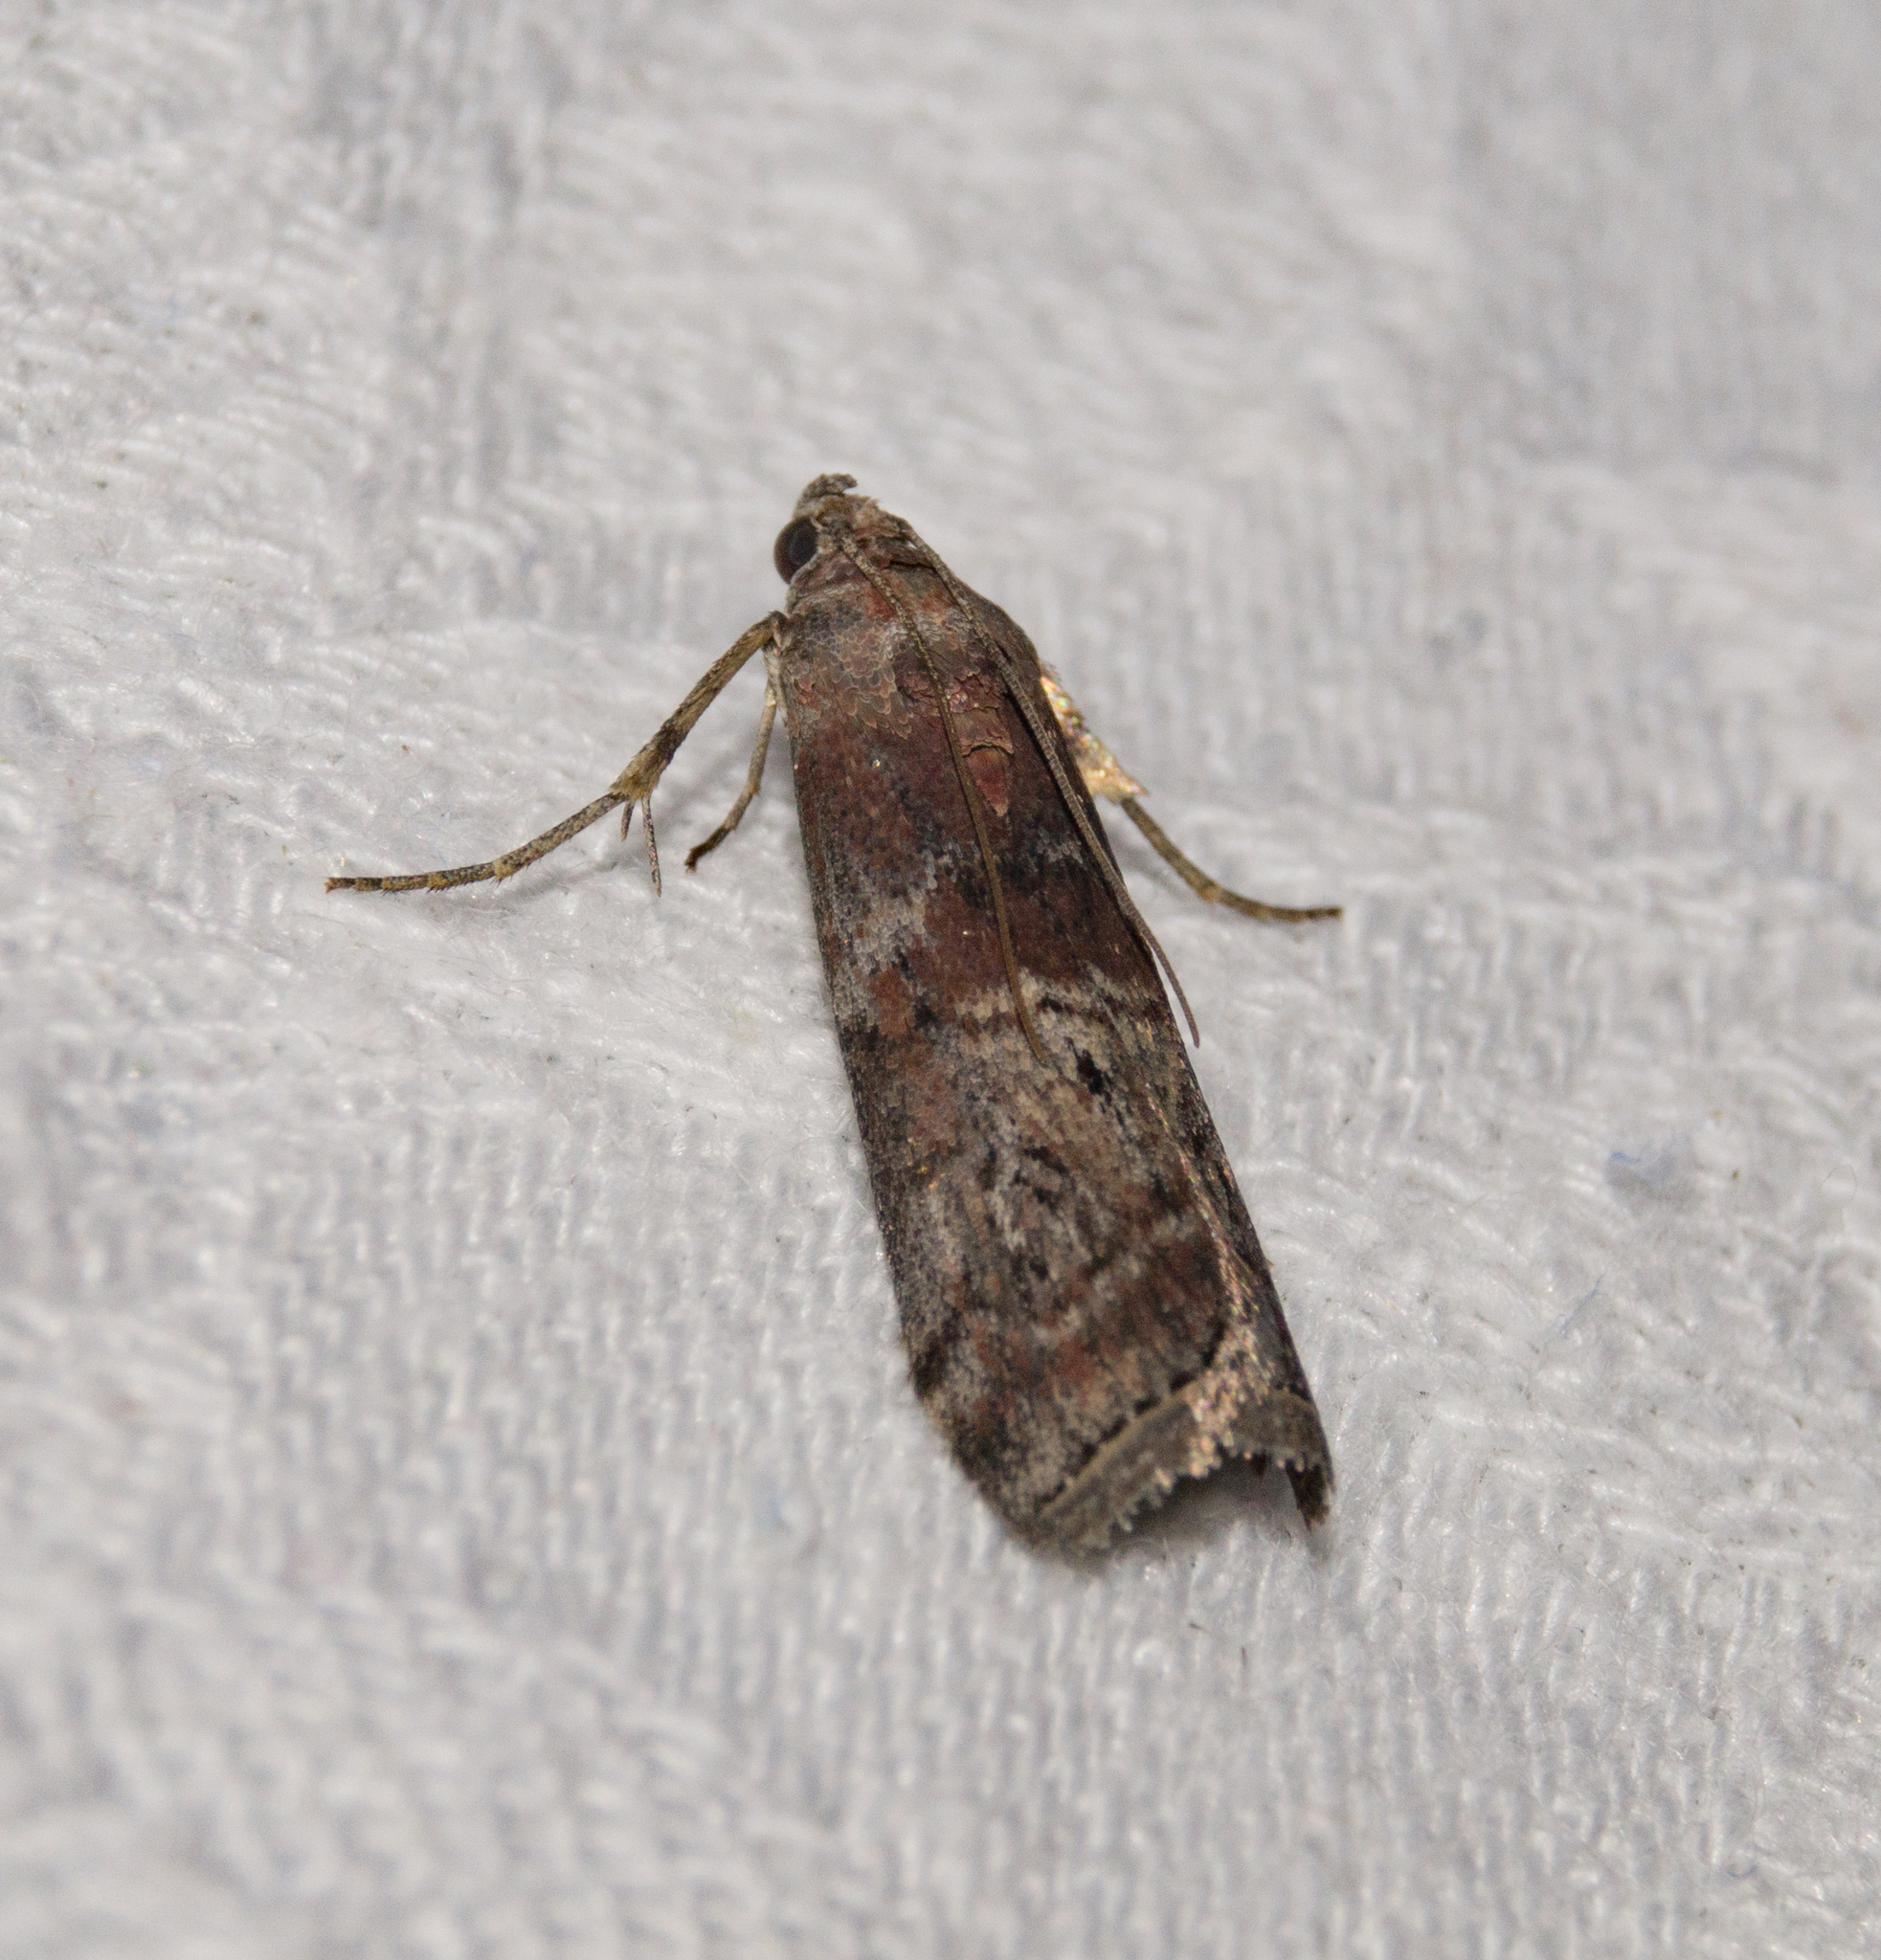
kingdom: Animalia
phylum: Arthropoda
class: Insecta
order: Lepidoptera
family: Pyralidae
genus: Phycita
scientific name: Phycita roborella
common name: Dotted oak knot-horn
